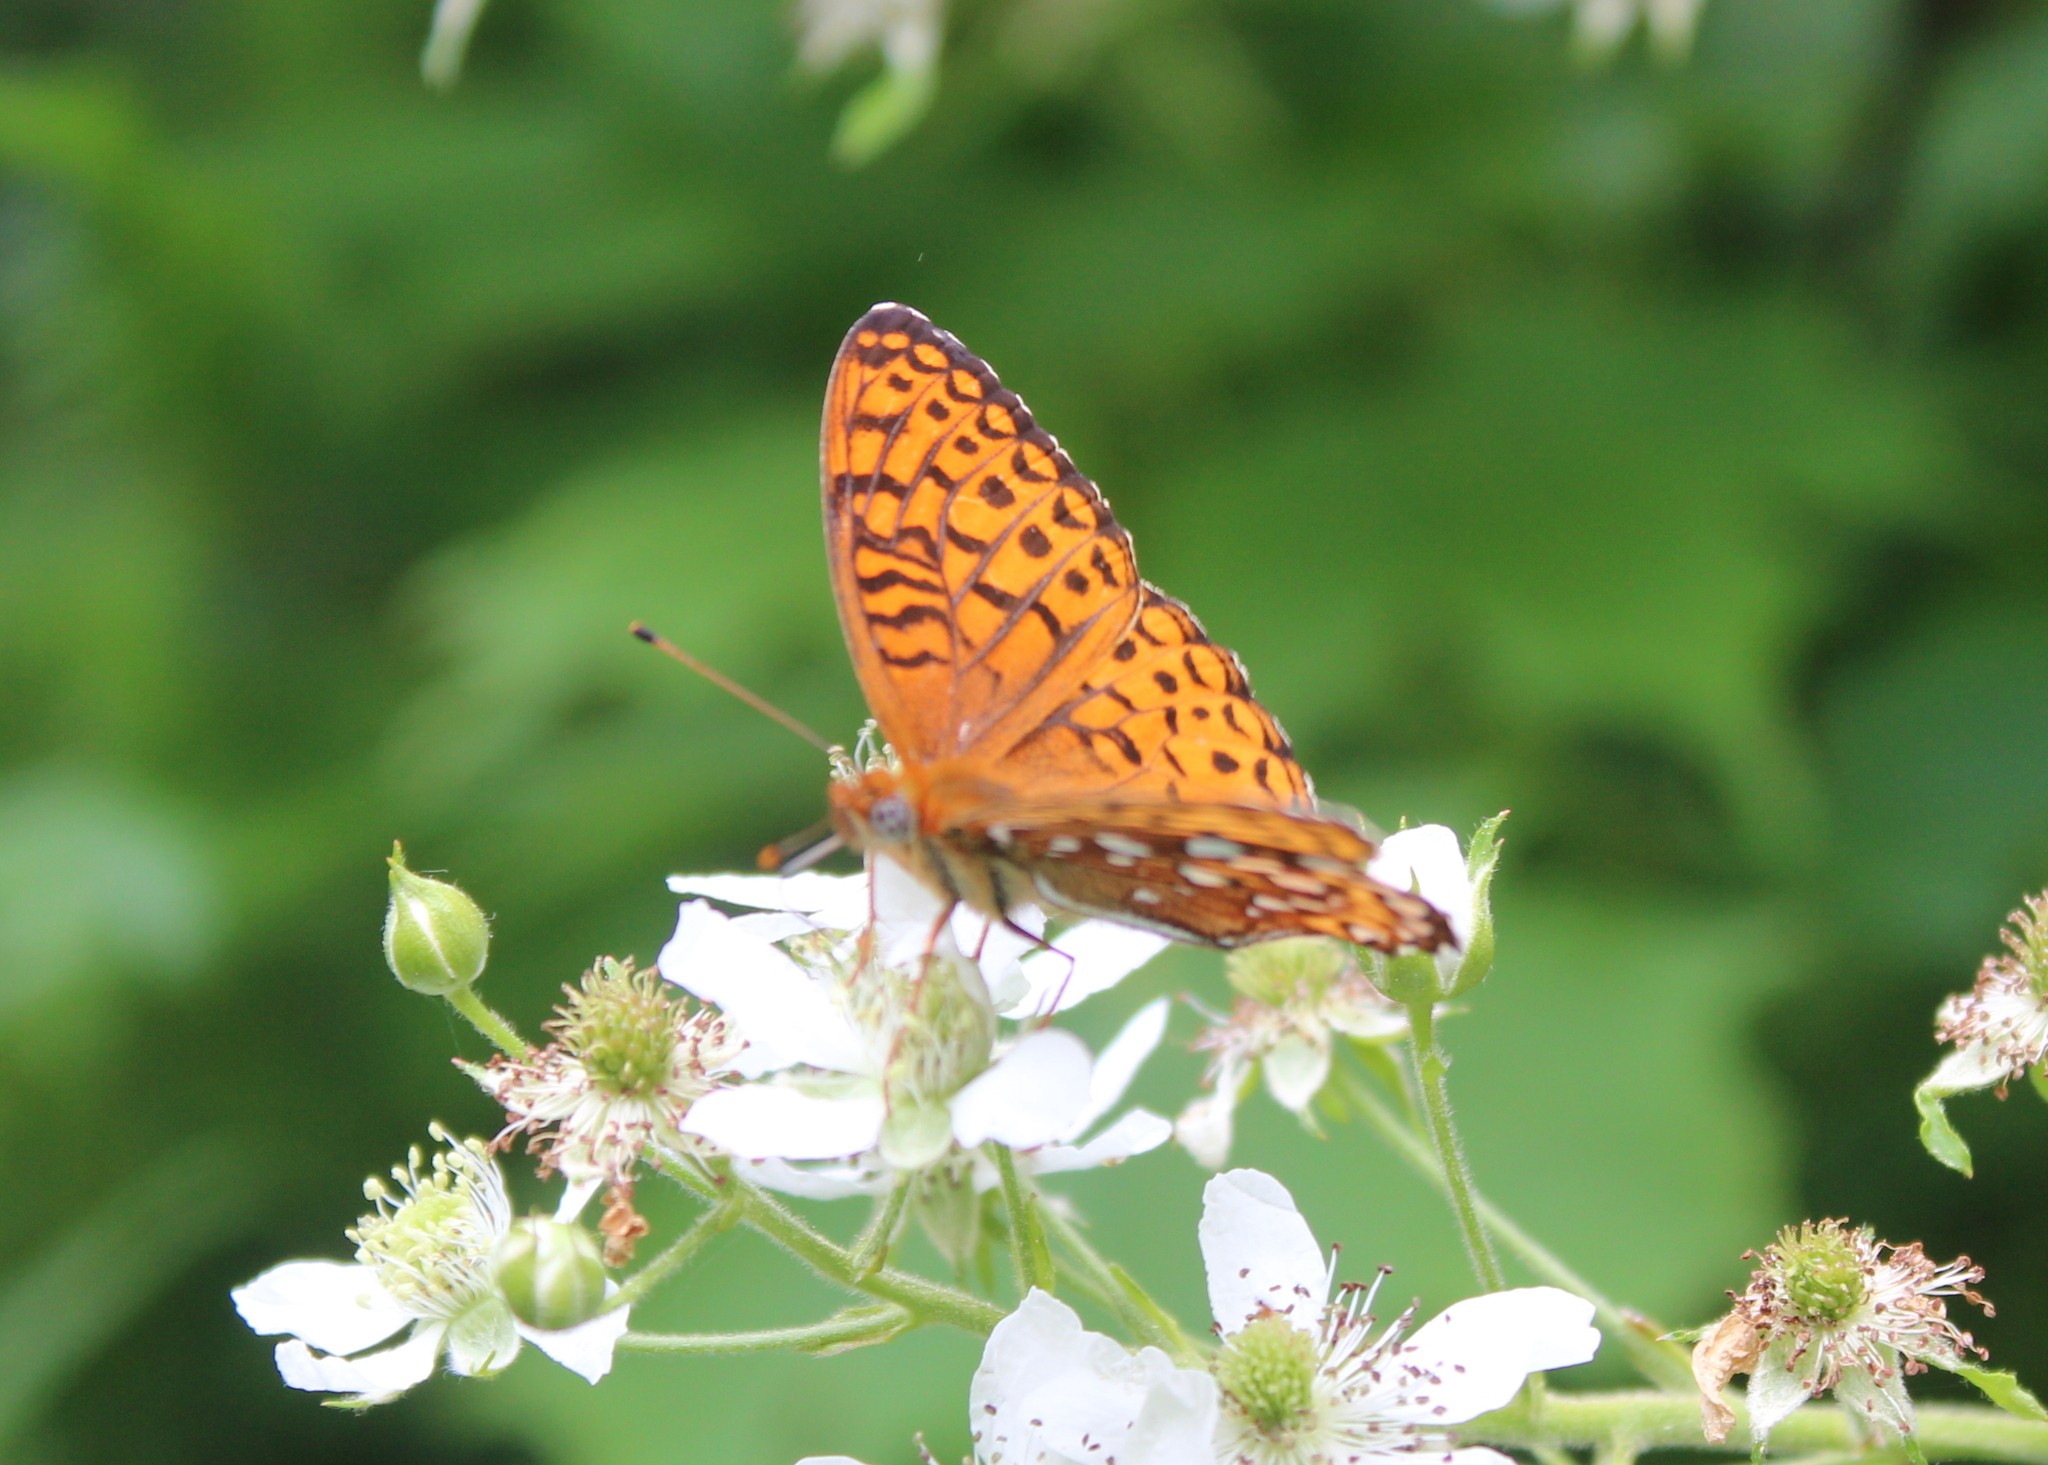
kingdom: Animalia
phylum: Arthropoda
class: Insecta
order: Lepidoptera
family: Nymphalidae
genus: Speyeria
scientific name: Speyeria atlantis
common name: Atlantis fritillary
